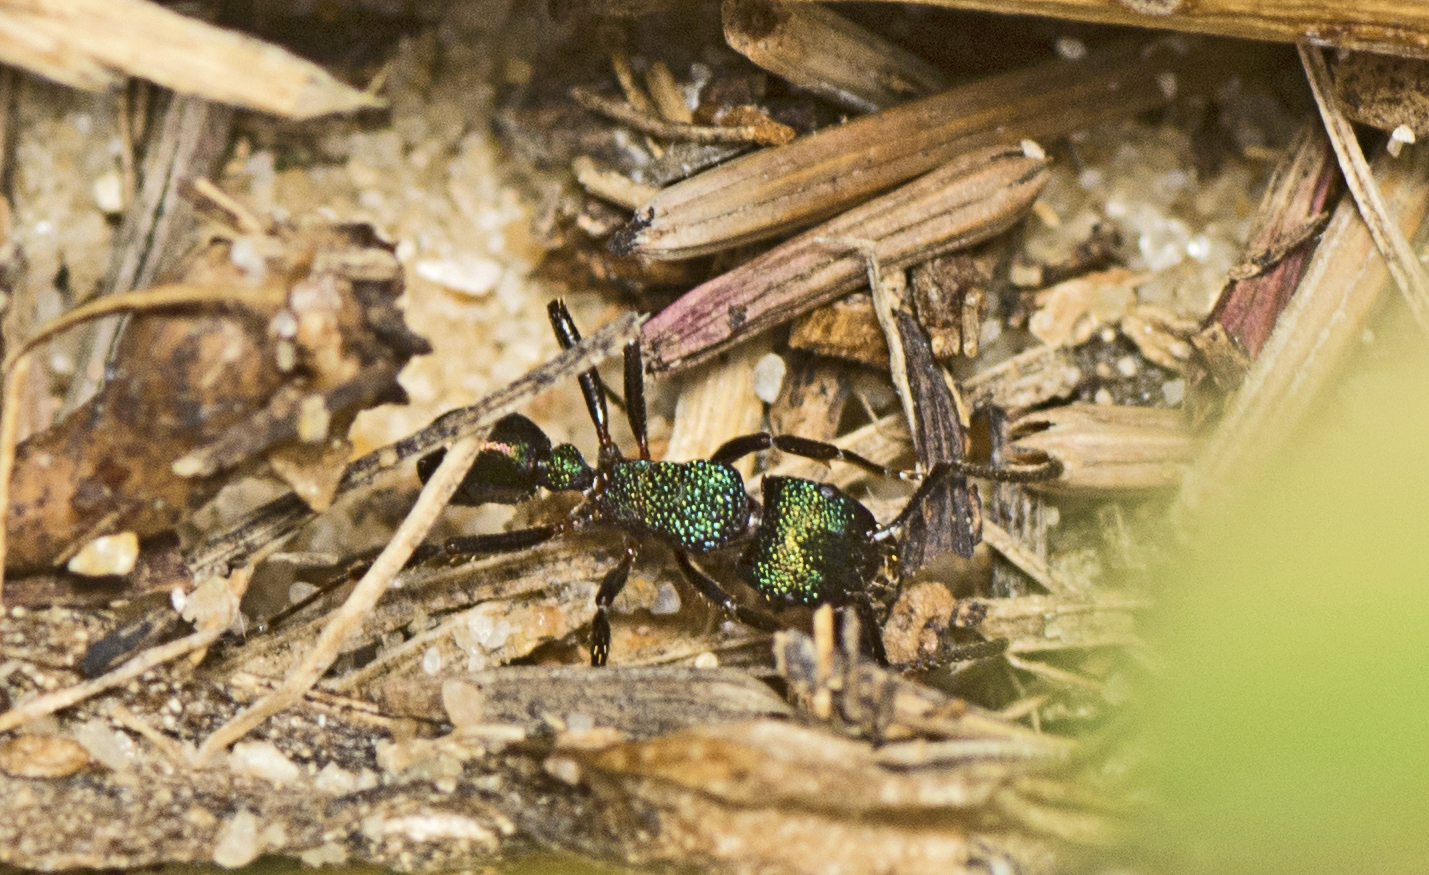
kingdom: Animalia
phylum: Arthropoda
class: Insecta
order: Hymenoptera
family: Formicidae
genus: Rhytidoponera
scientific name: Rhytidoponera metallica
